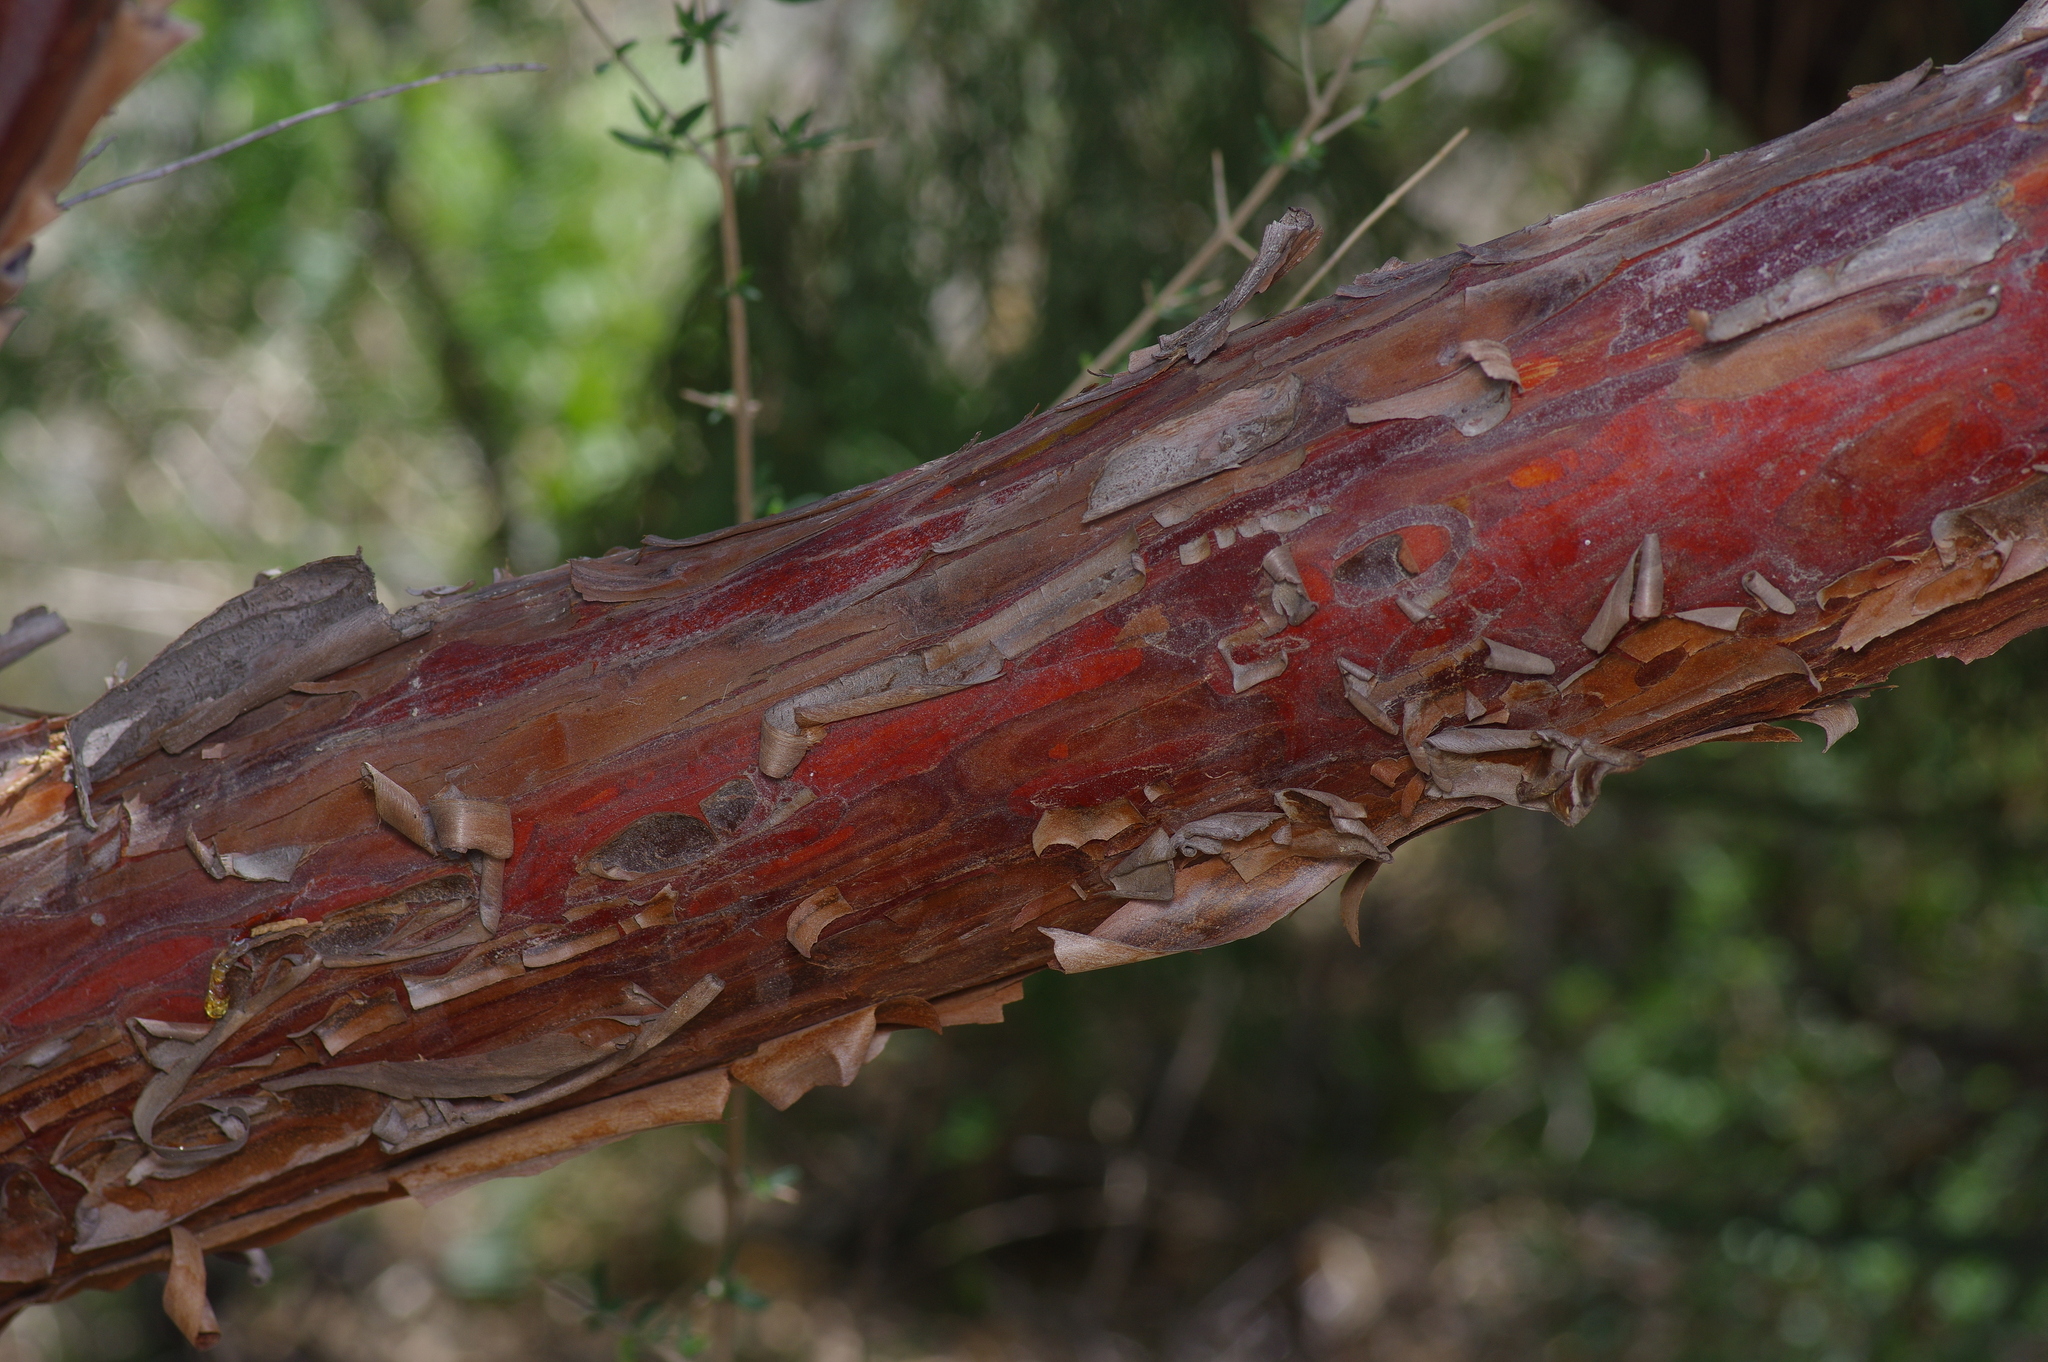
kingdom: Plantae
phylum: Tracheophyta
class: Pinopsida
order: Pinales
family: Cupressaceae
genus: Cupressus
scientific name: Cupressus arizonica
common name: Arizona cypress
